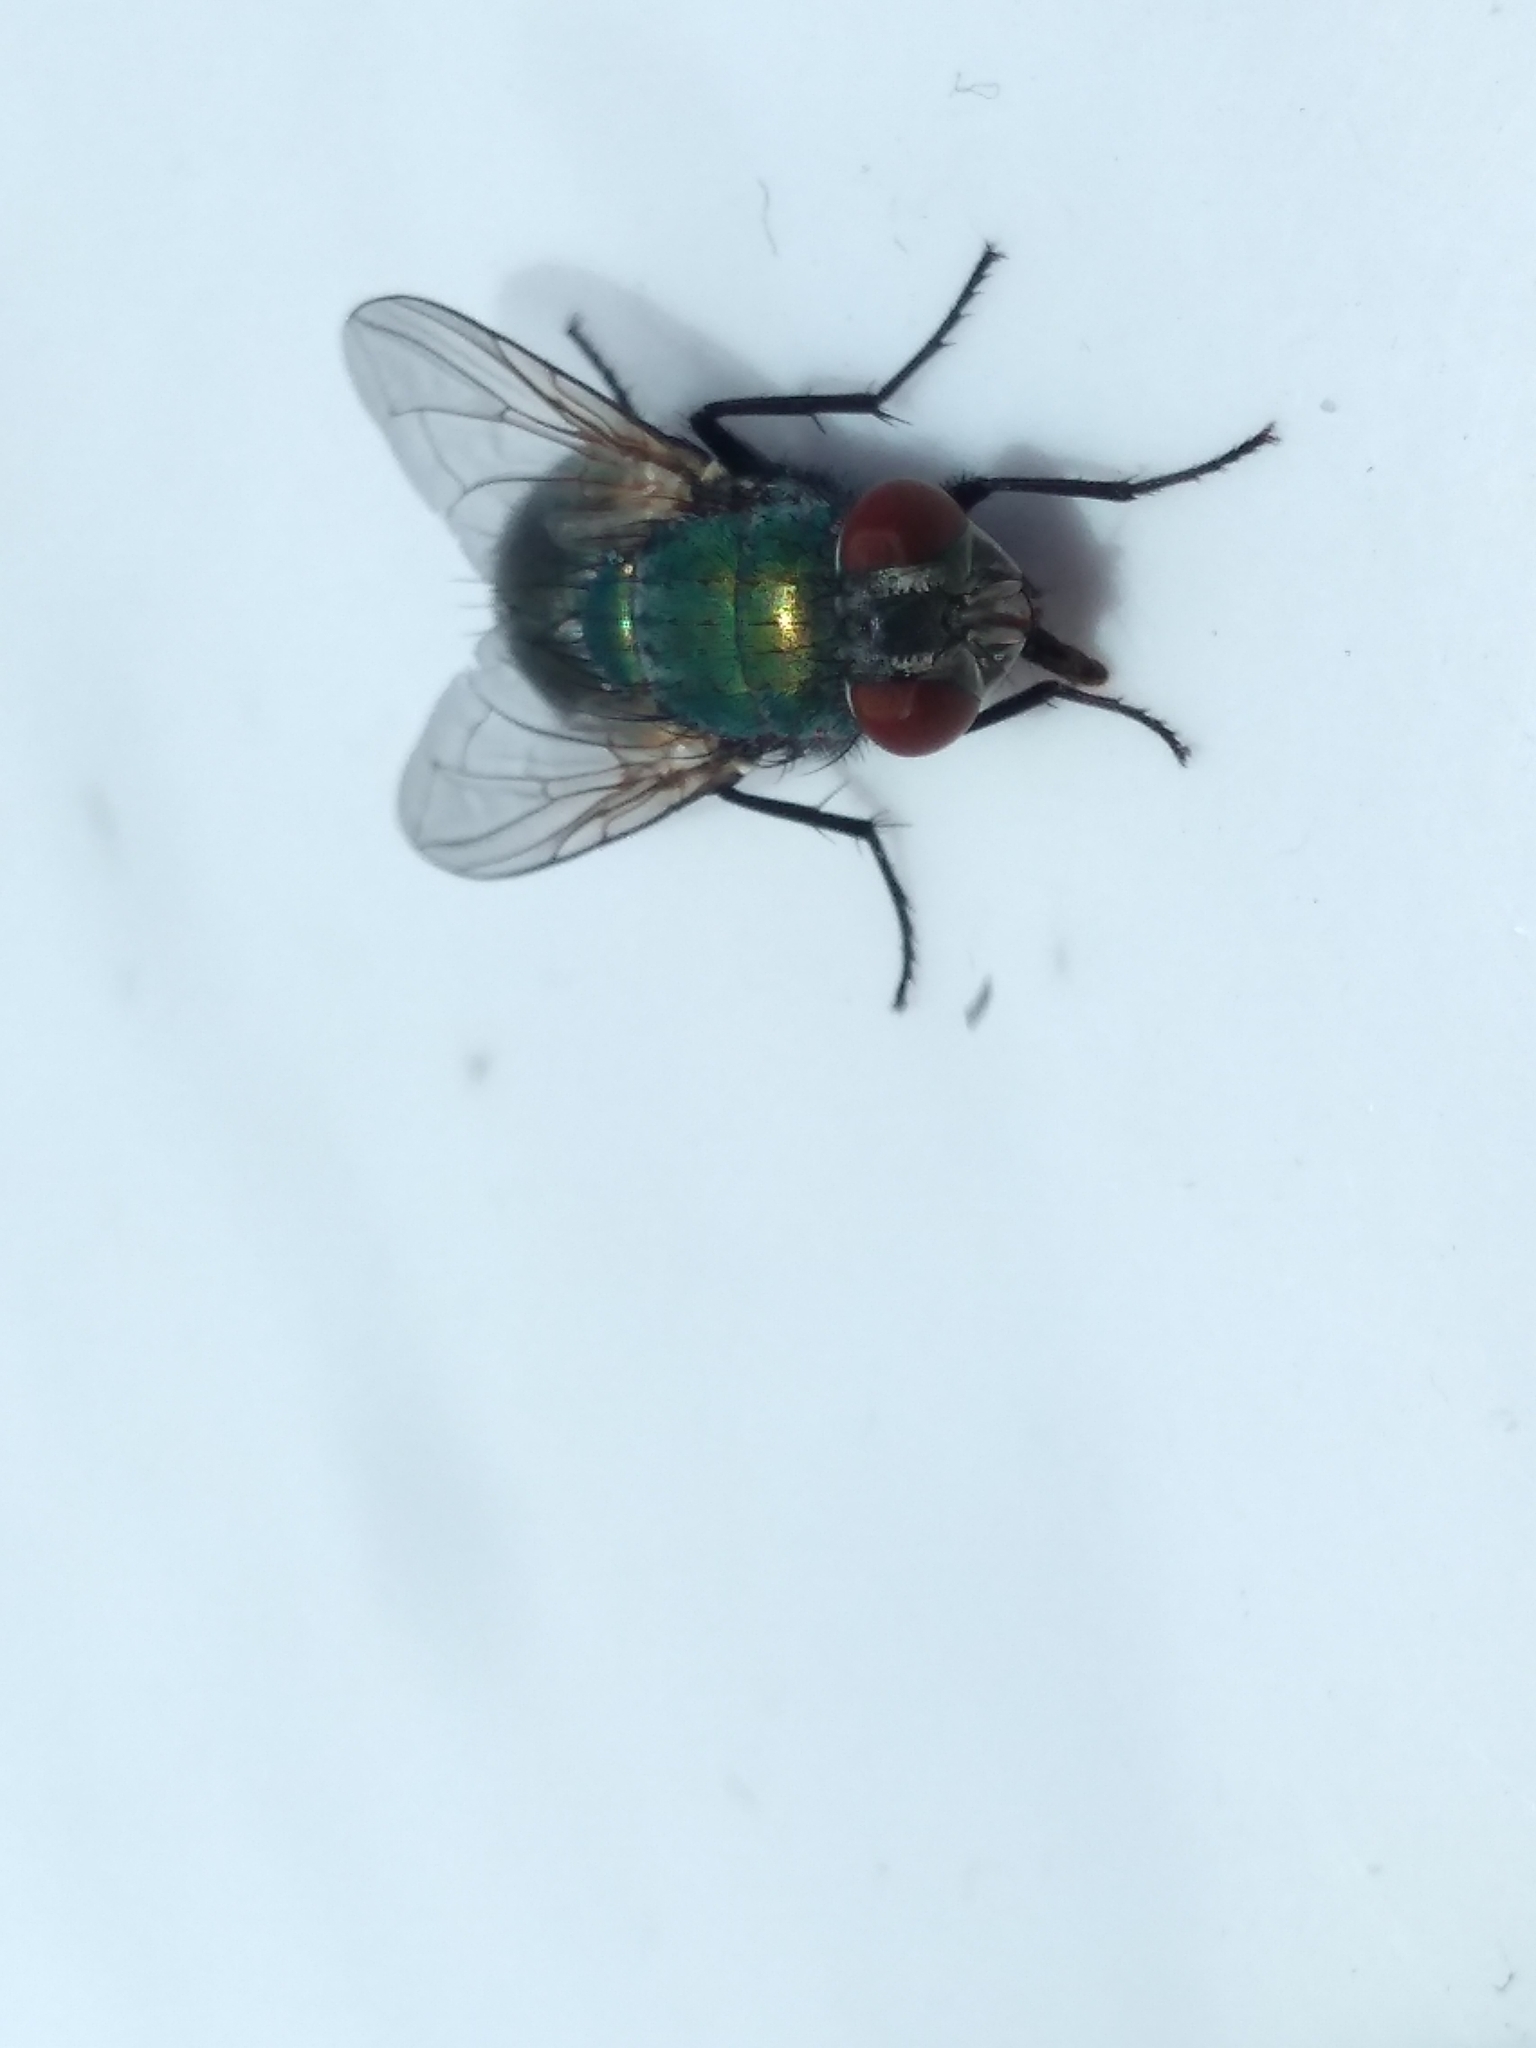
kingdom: Animalia
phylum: Arthropoda
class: Insecta
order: Diptera
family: Calliphoridae
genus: Lucilia
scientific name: Lucilia sericata
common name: Blow fly
